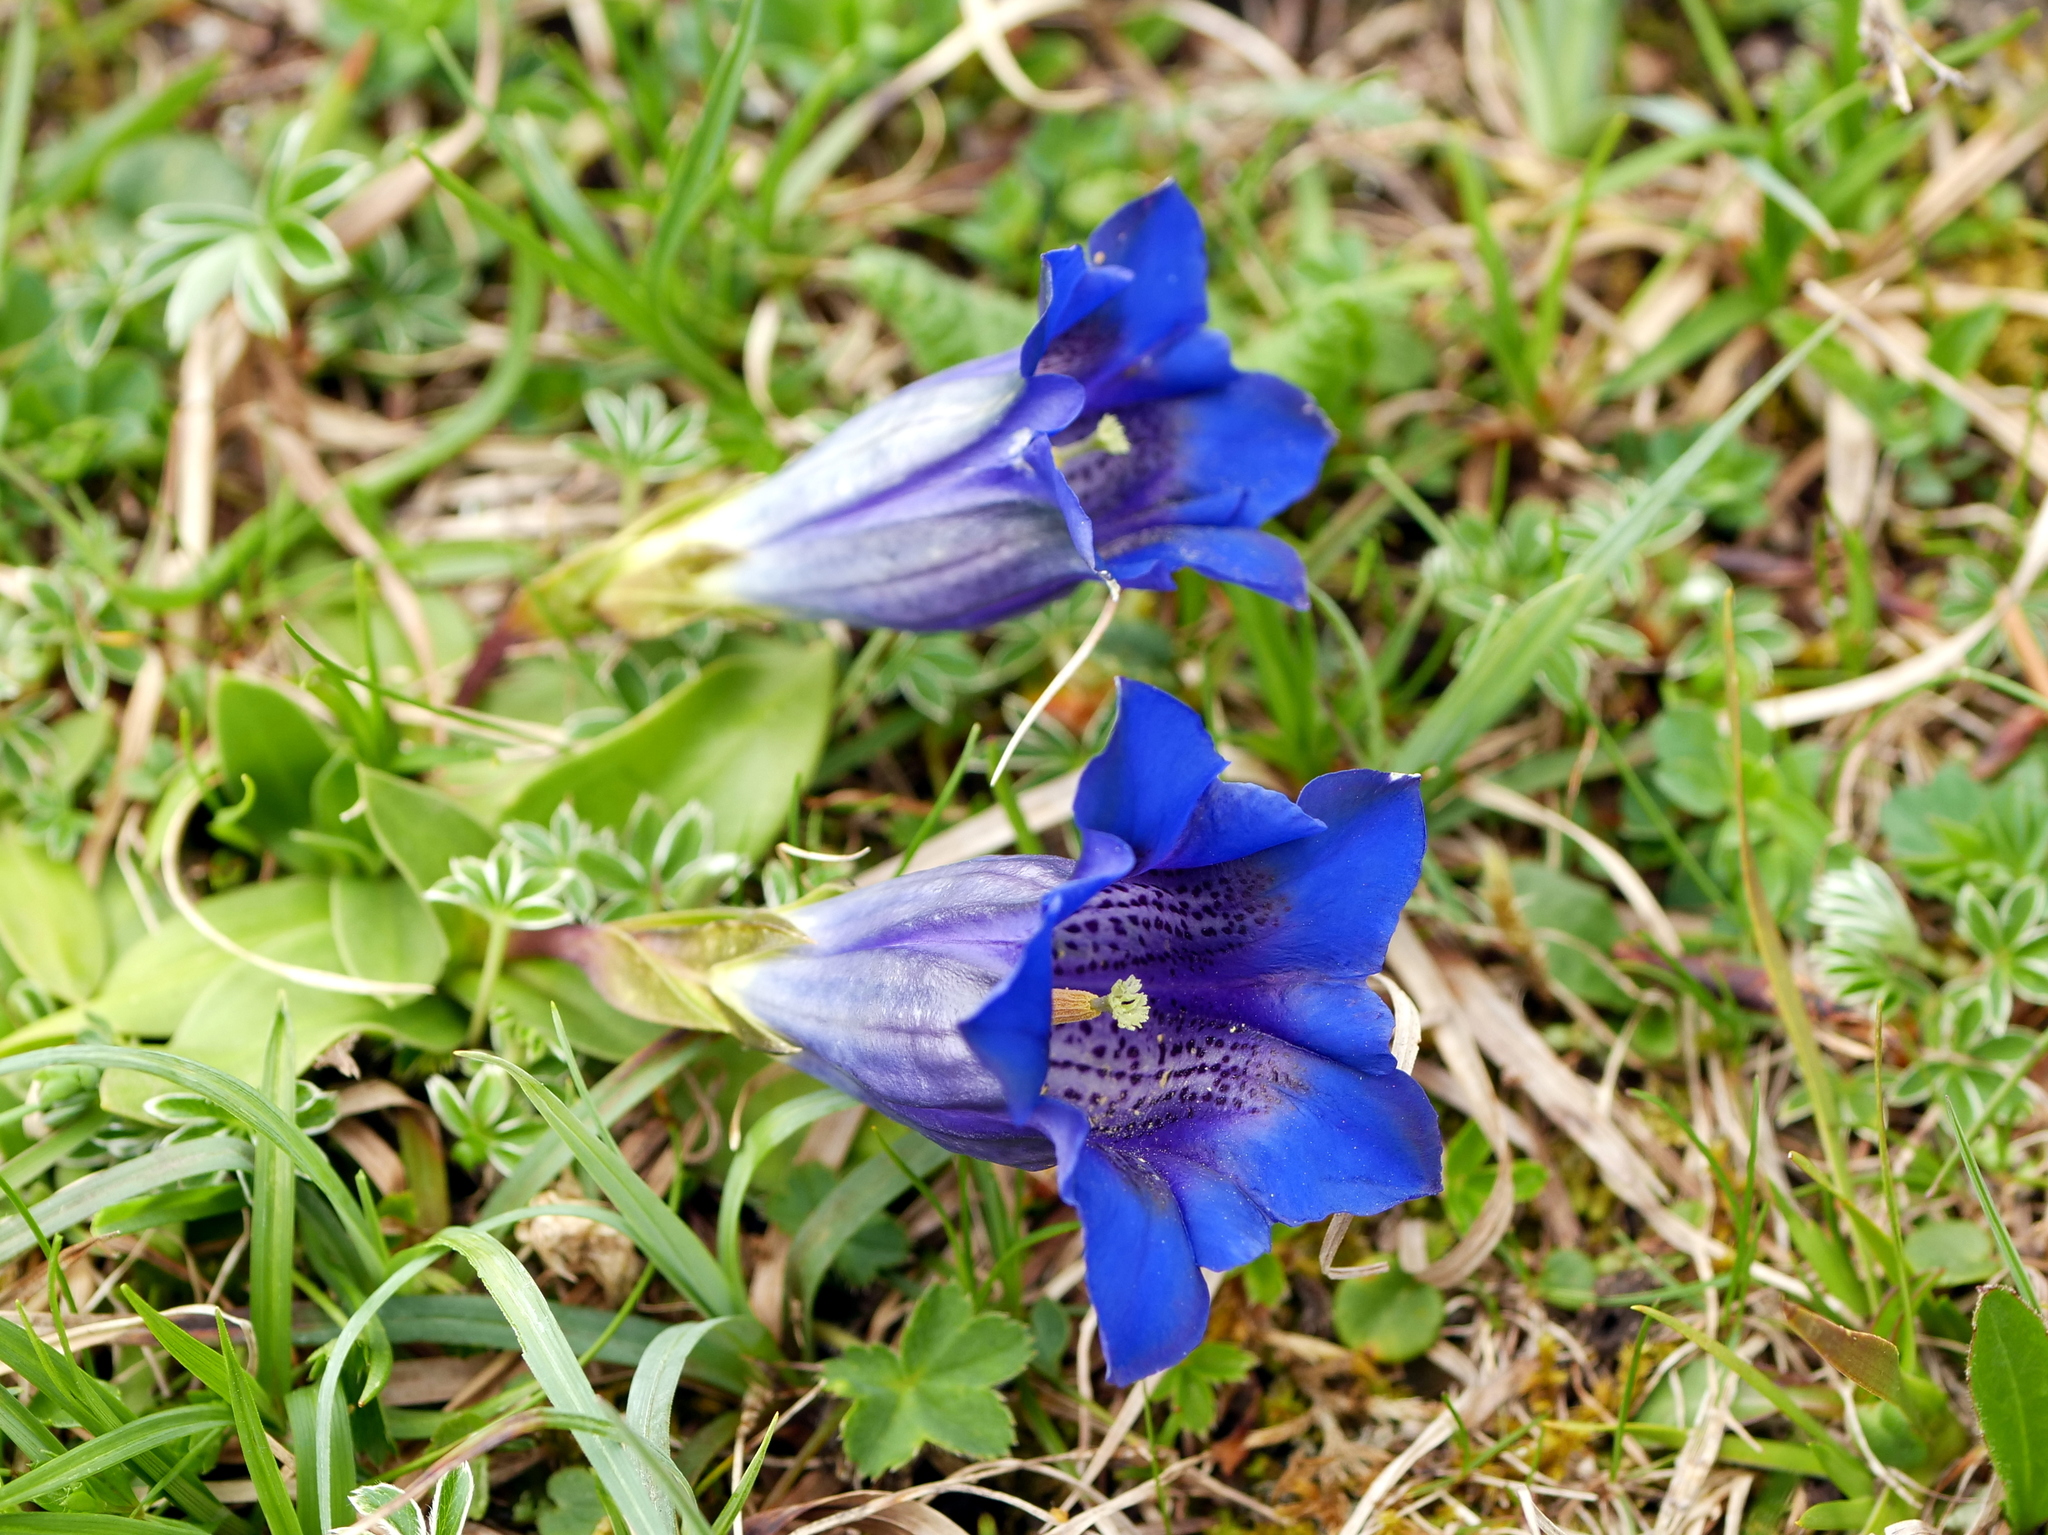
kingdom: Plantae
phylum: Tracheophyta
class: Magnoliopsida
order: Gentianales
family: Gentianaceae
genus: Gentiana
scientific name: Gentiana clusii
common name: Trumpet gentian
